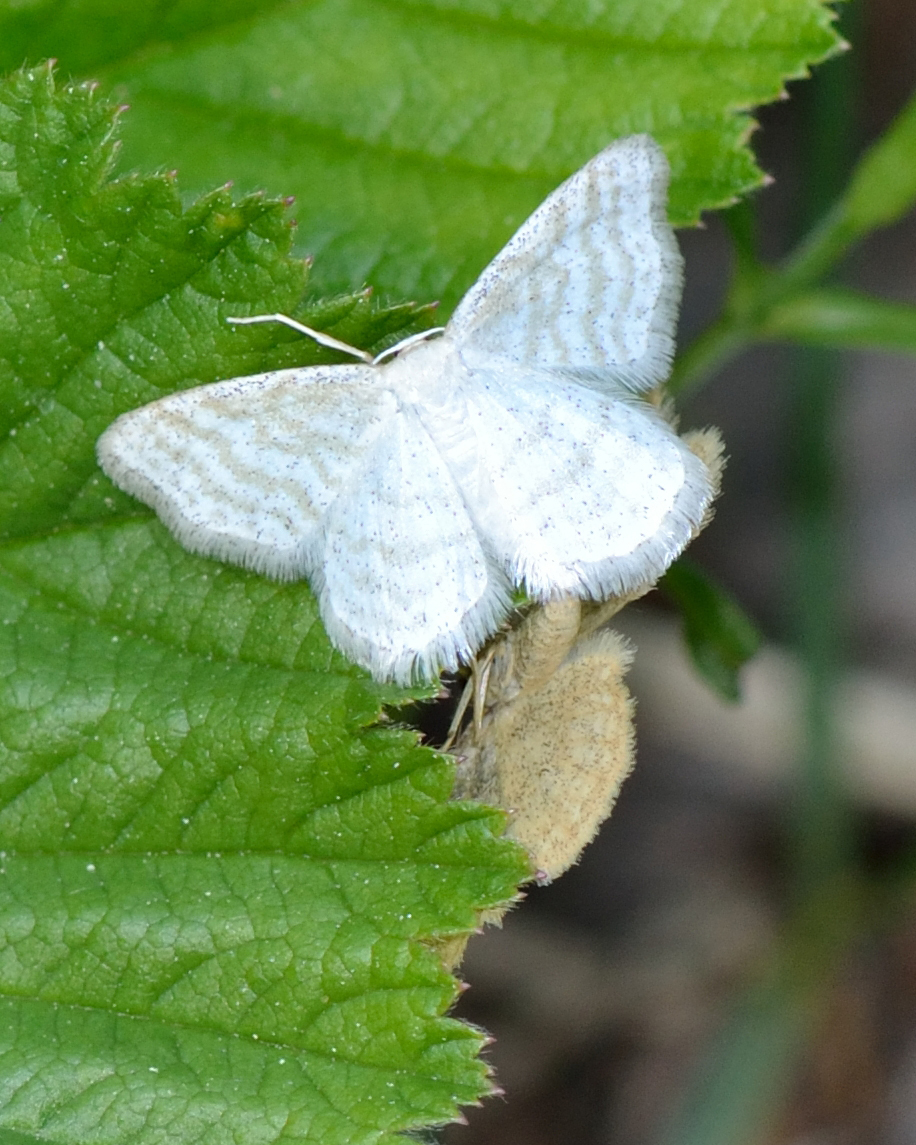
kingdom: Animalia
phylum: Arthropoda
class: Insecta
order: Lepidoptera
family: Geometridae
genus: Idaea
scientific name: Idaea pallidata
